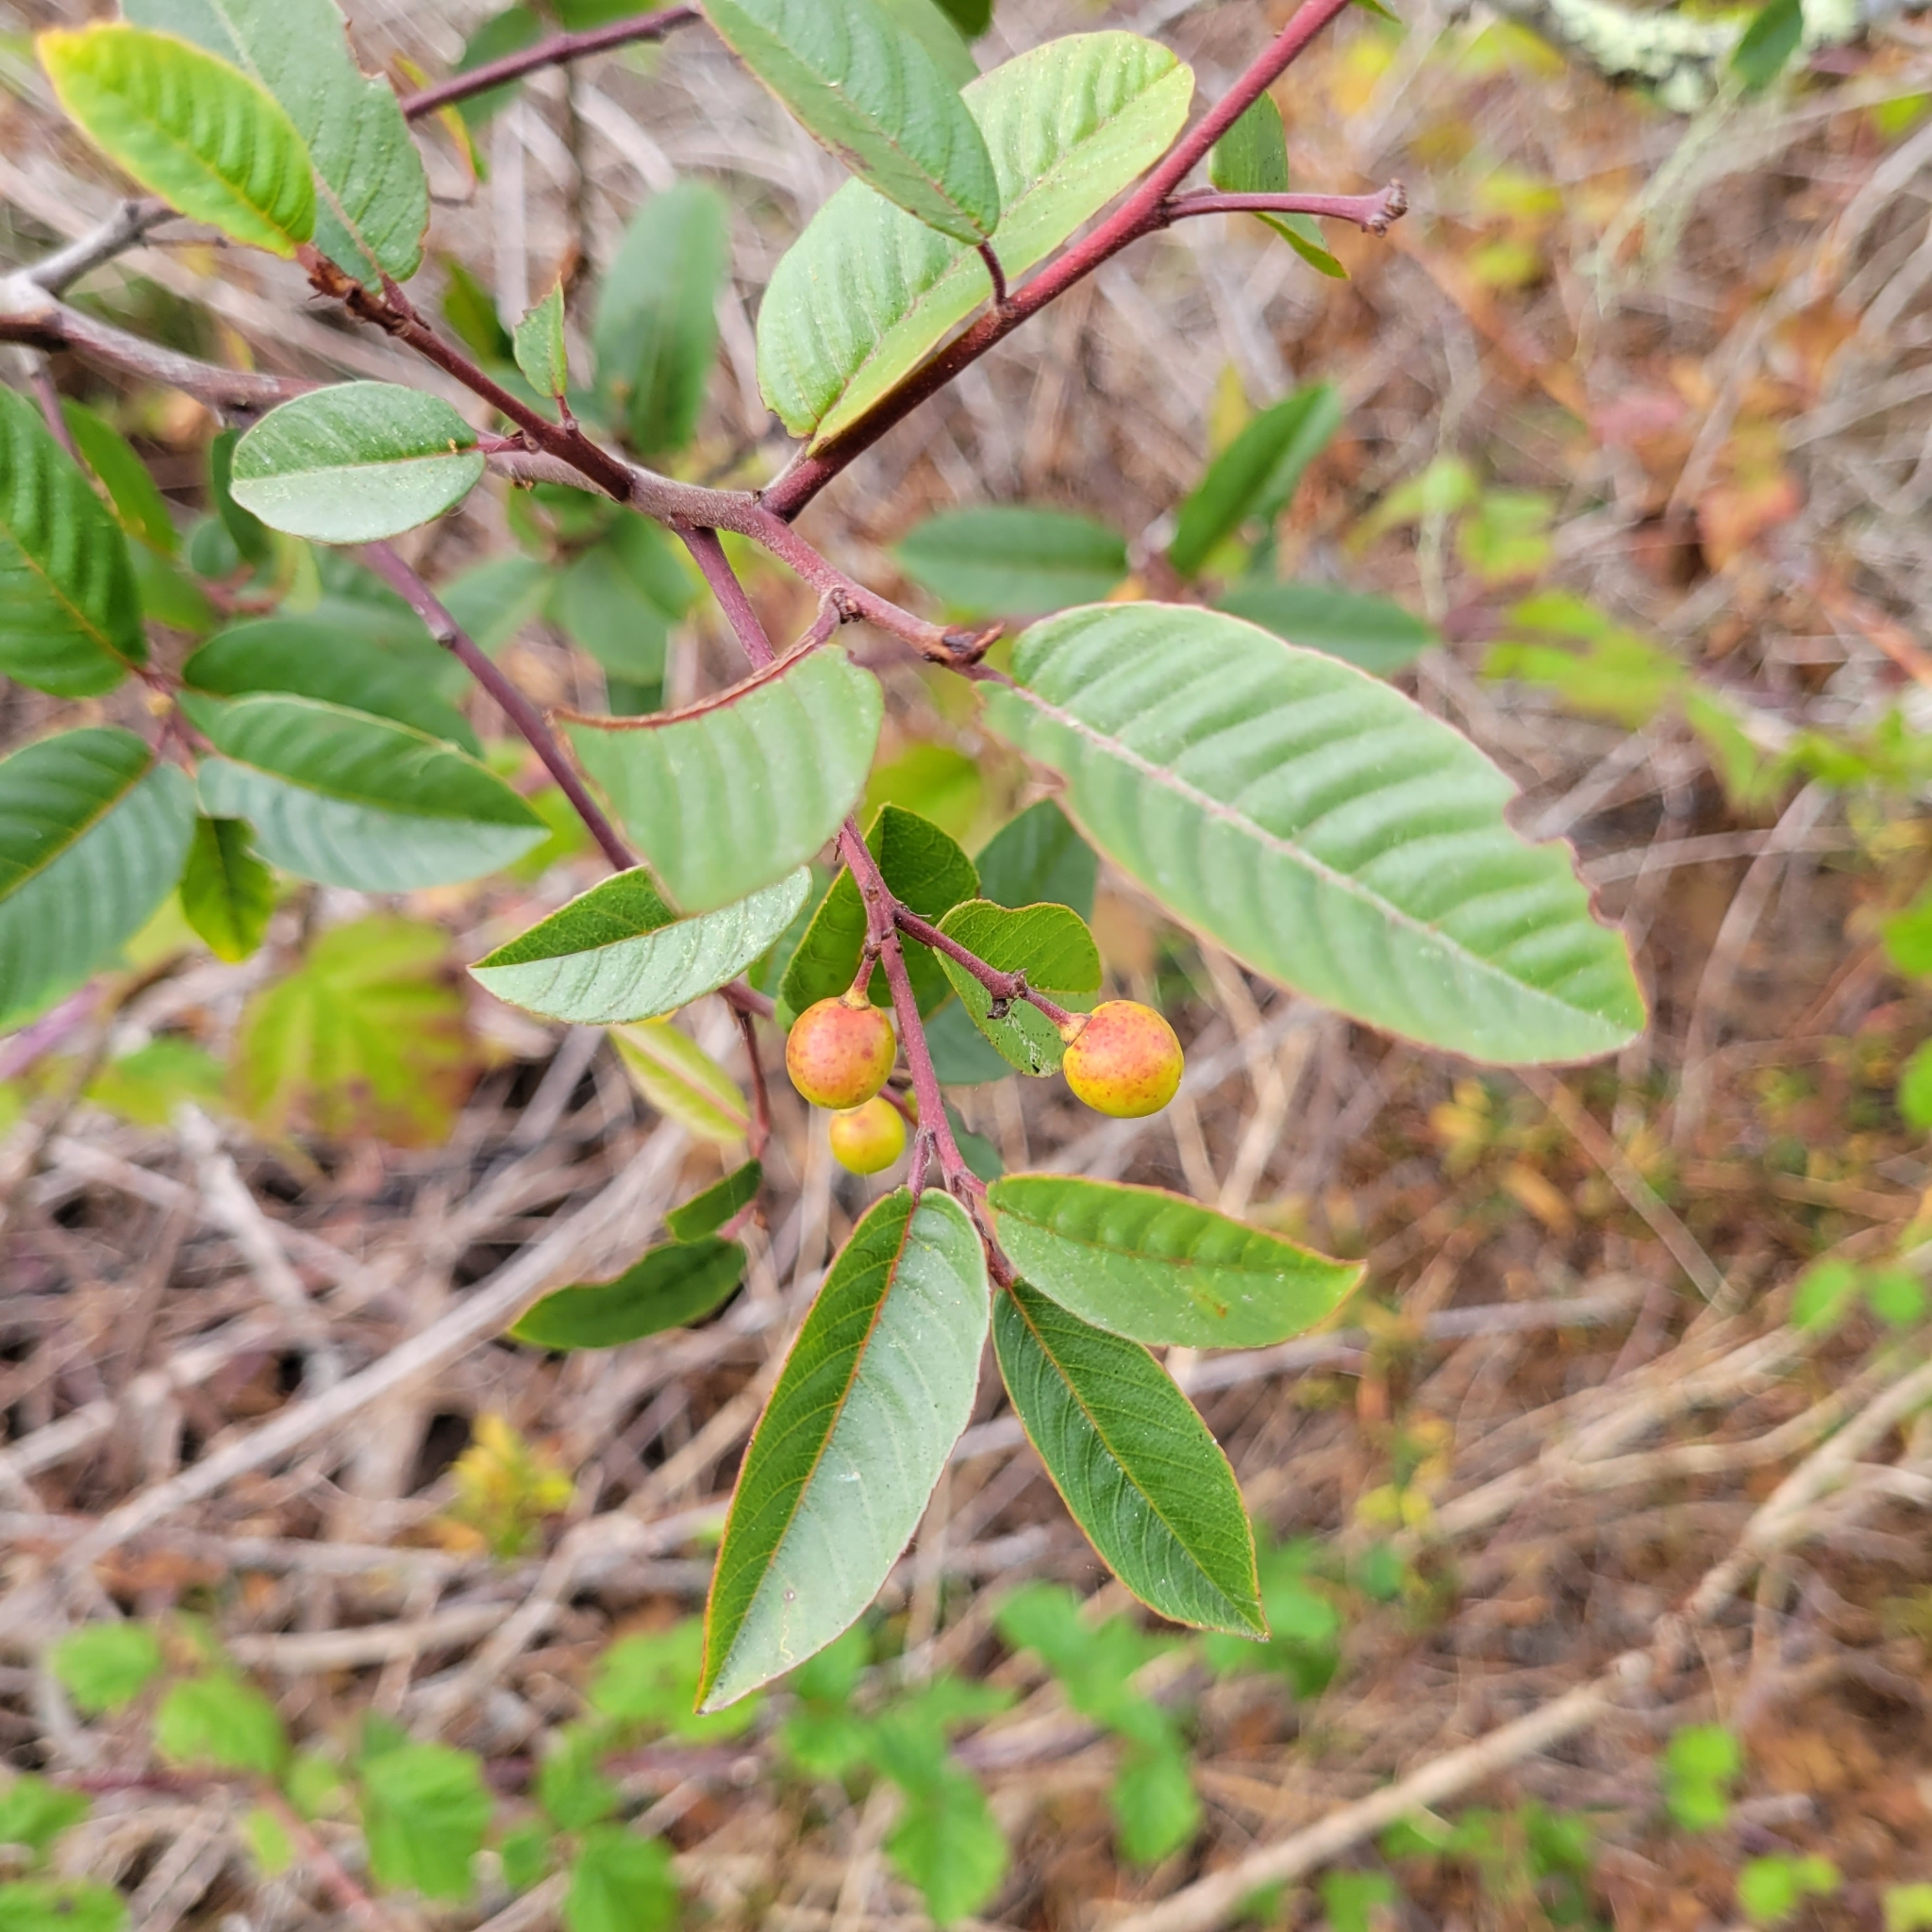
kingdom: Plantae
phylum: Tracheophyta
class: Magnoliopsida
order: Rosales
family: Rhamnaceae
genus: Frangula
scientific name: Frangula californica
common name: California buckthorn
